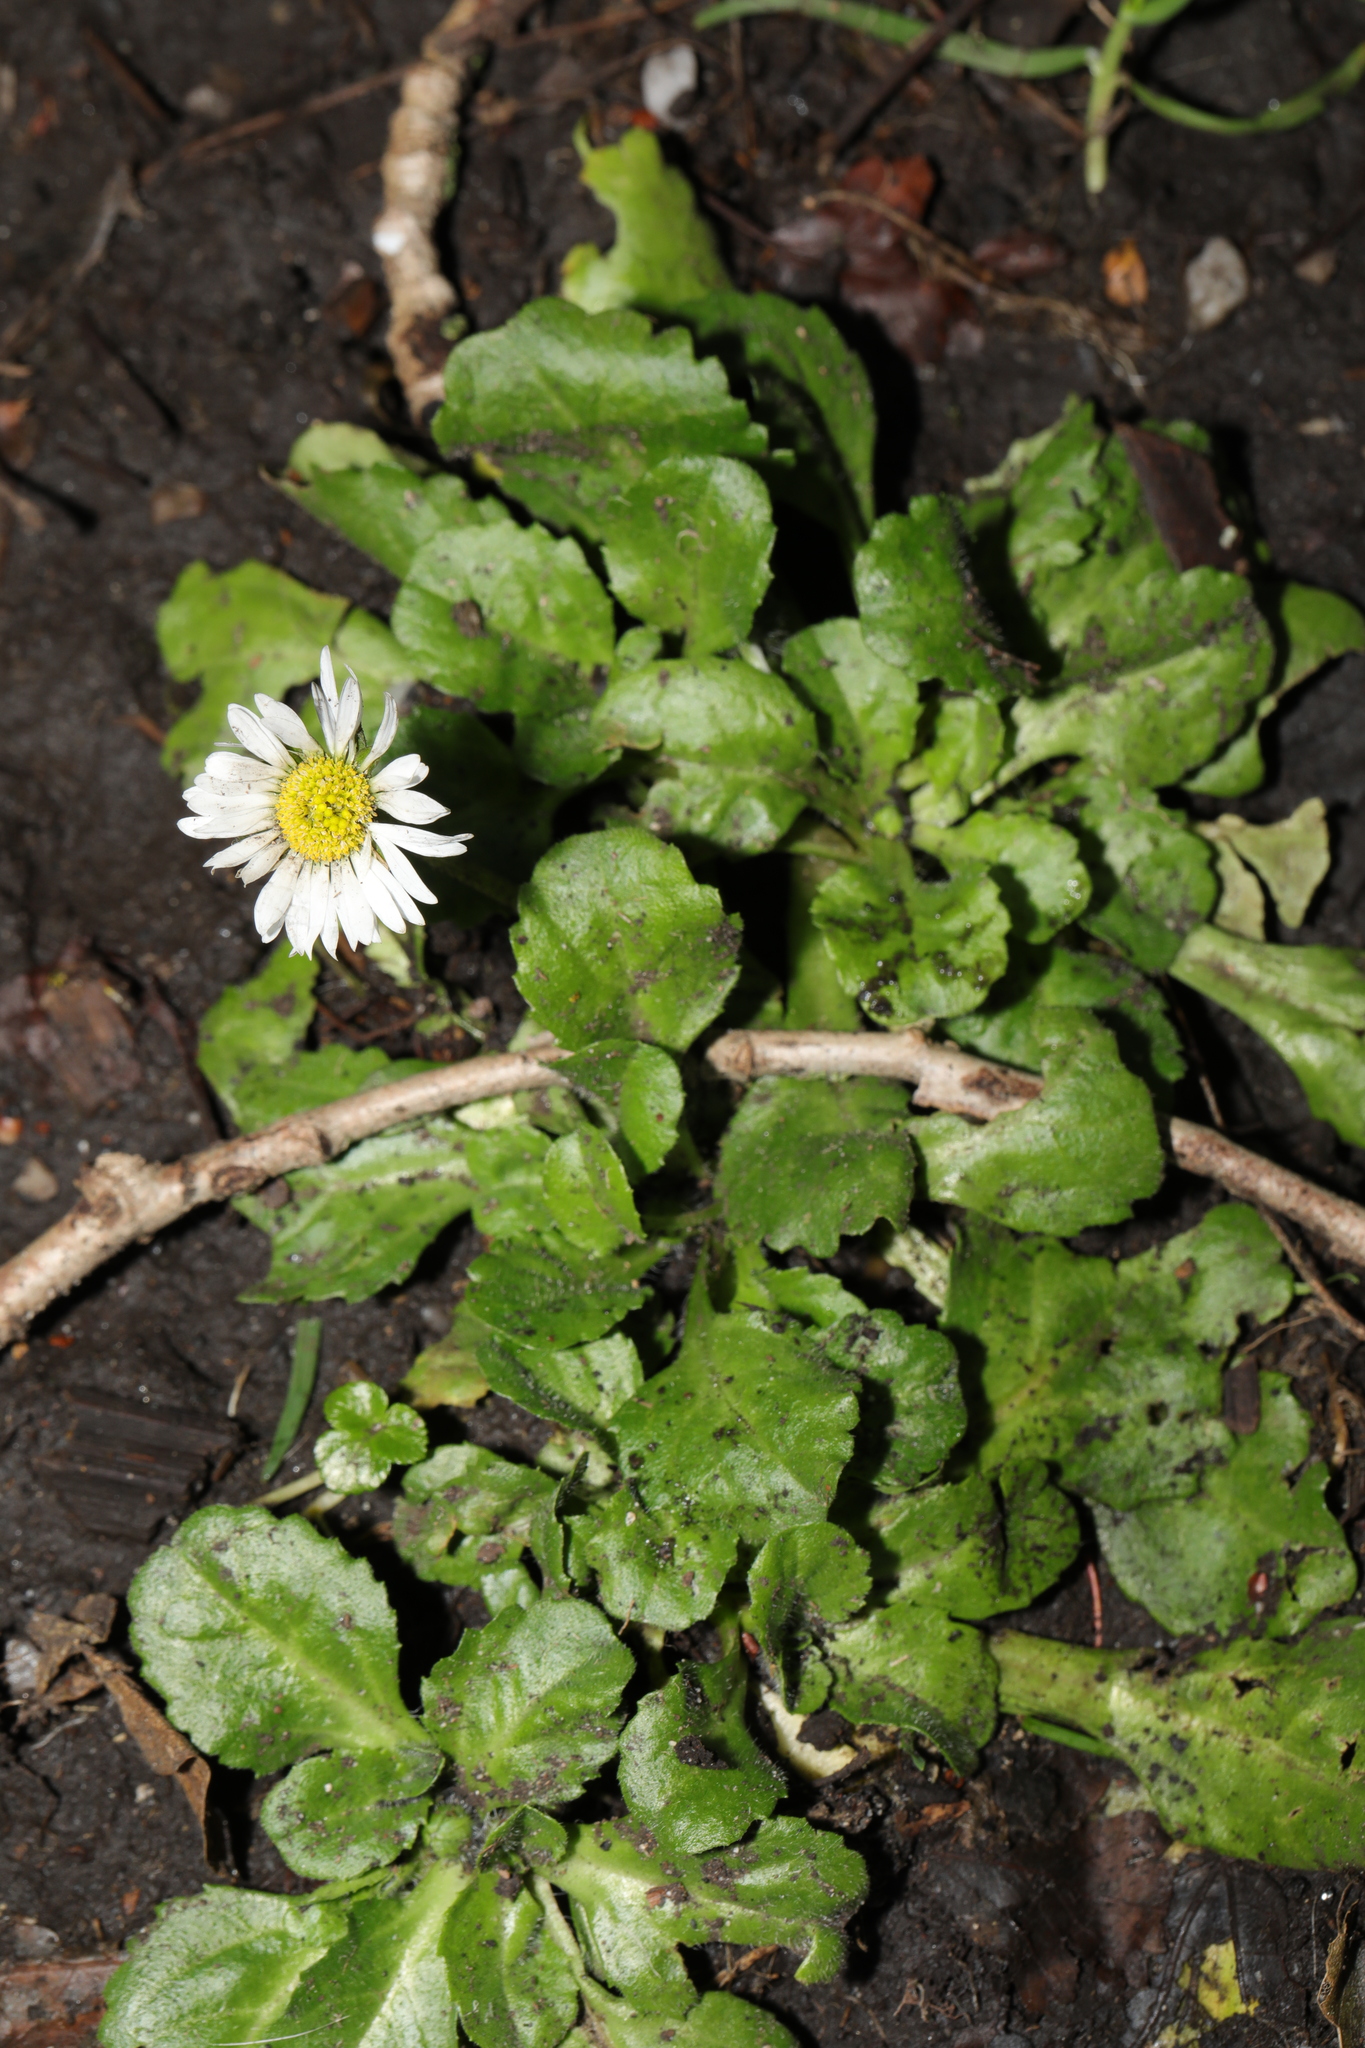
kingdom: Plantae
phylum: Tracheophyta
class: Magnoliopsida
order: Asterales
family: Asteraceae
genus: Bellis
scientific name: Bellis perennis
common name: Lawndaisy
